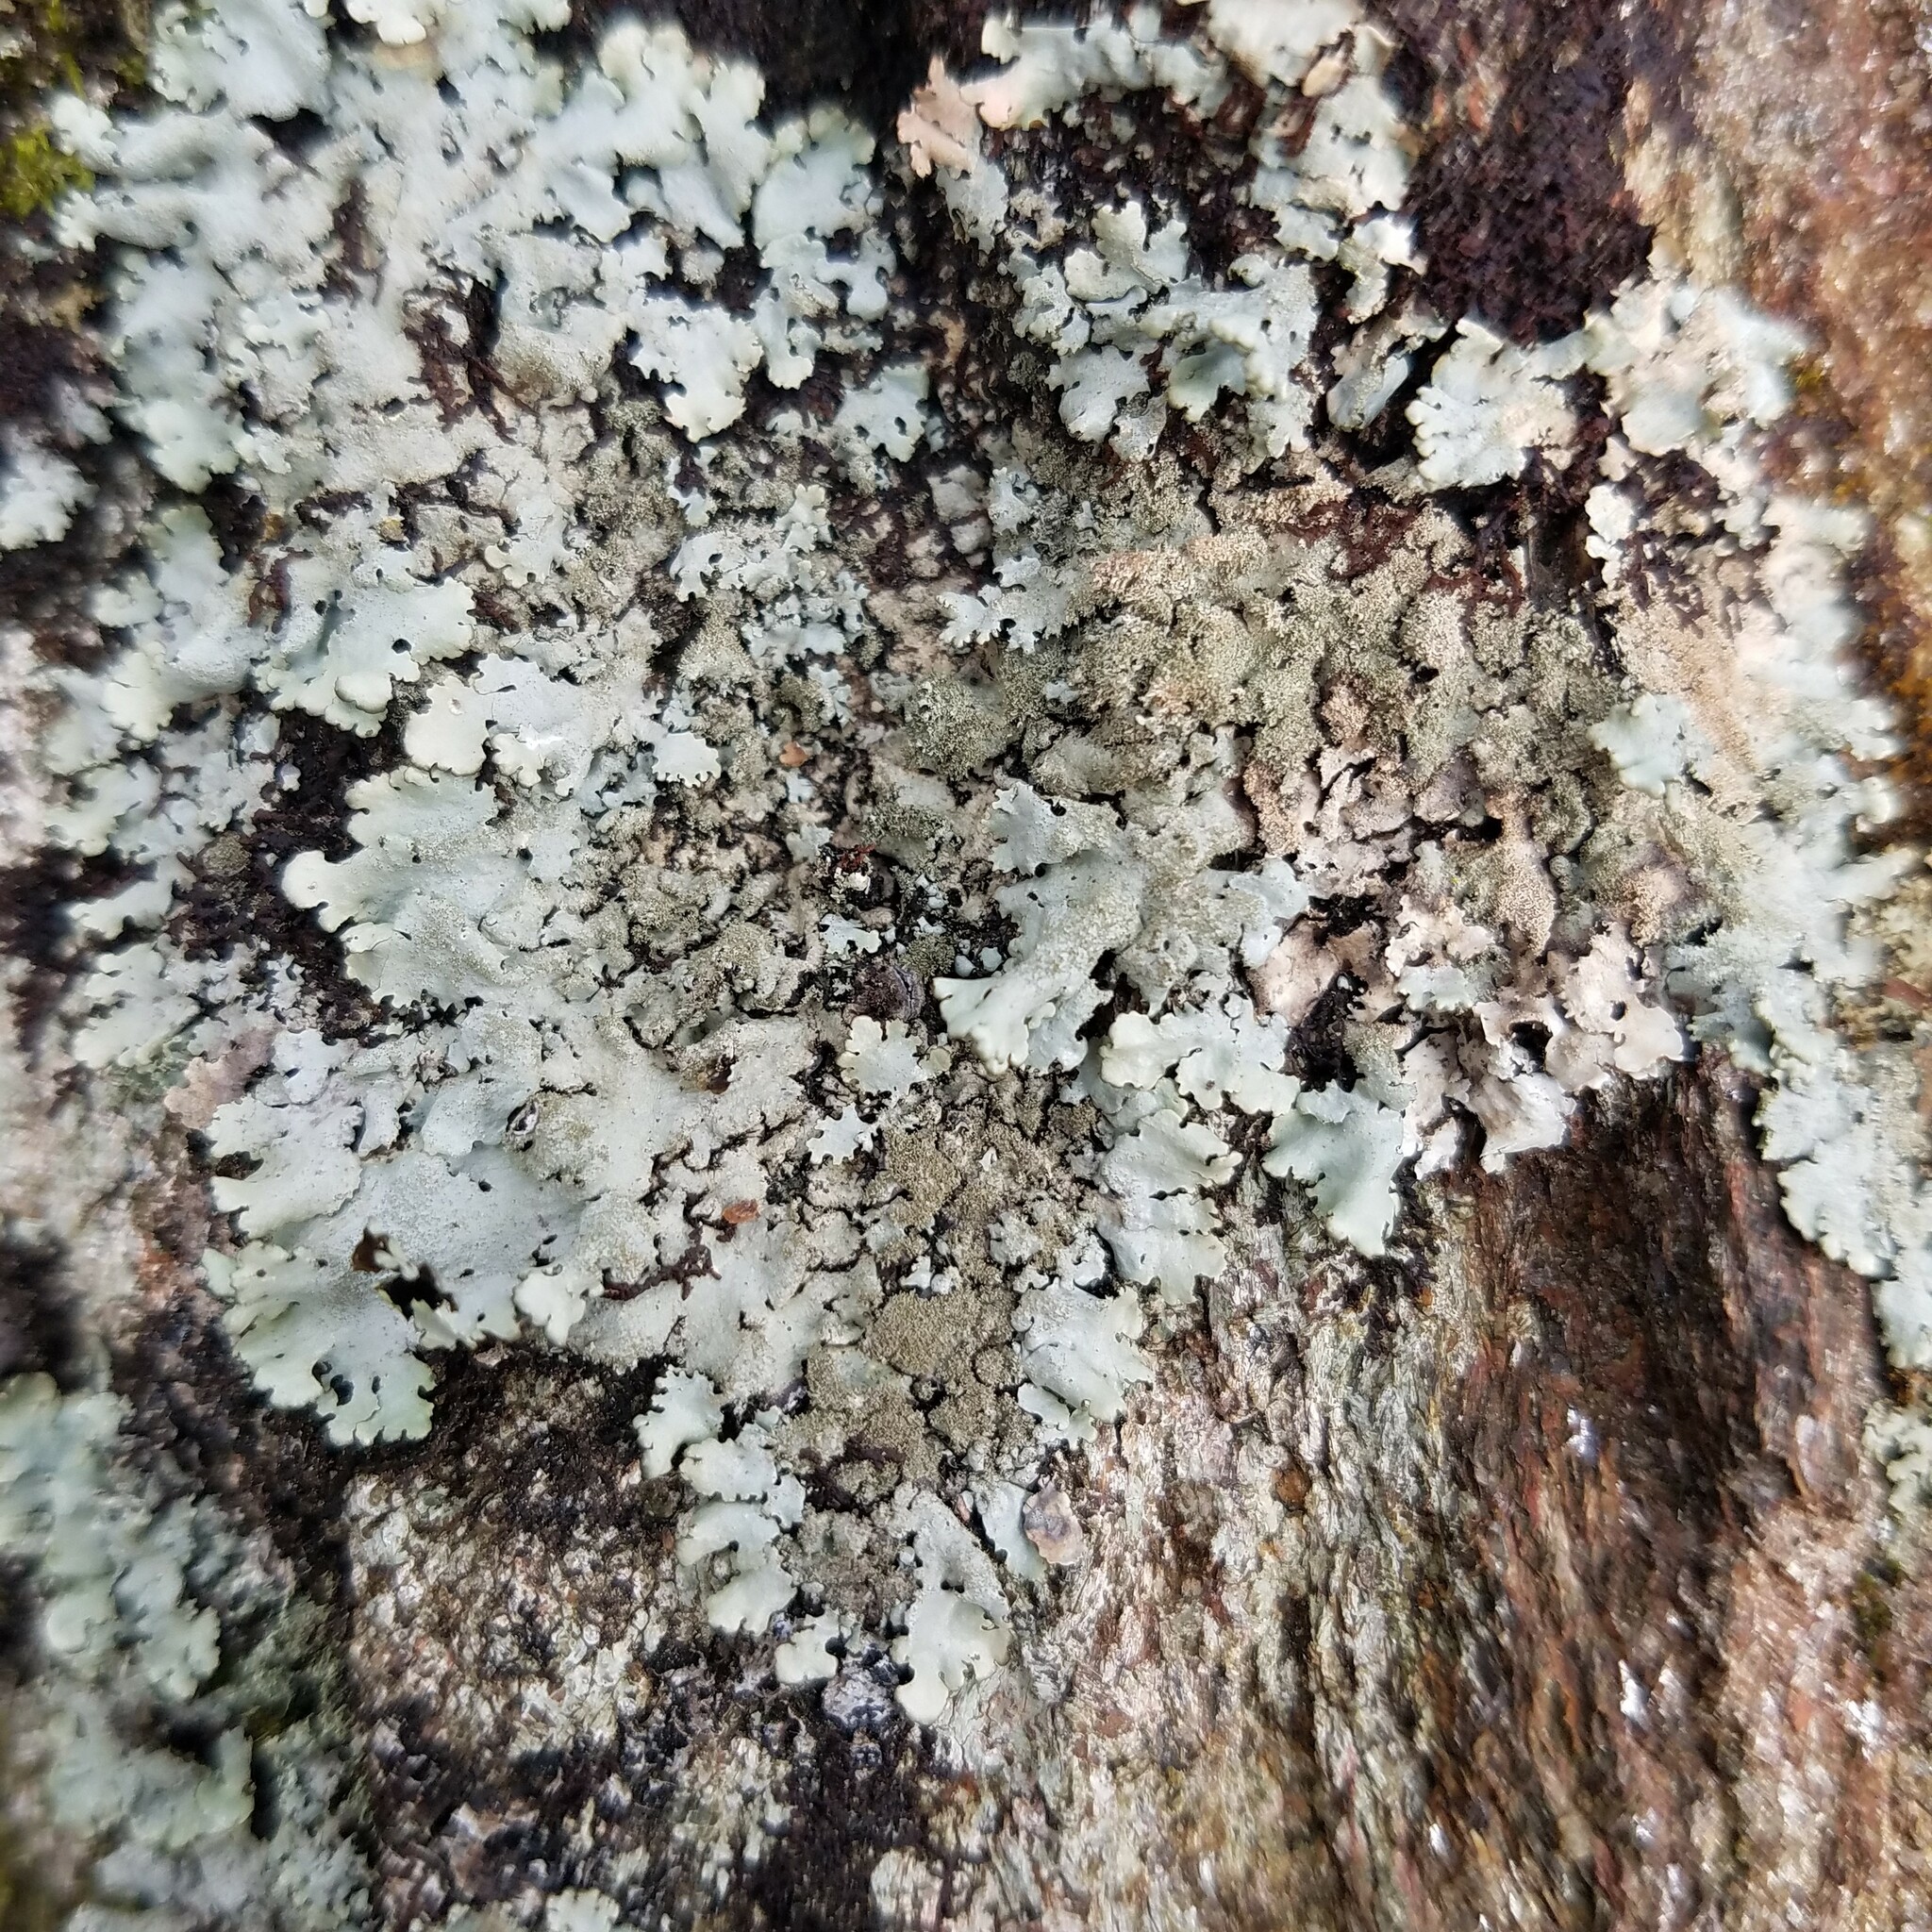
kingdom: Fungi
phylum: Ascomycota
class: Lecanoromycetes
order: Lecanorales
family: Parmeliaceae
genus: Hypotrachyna
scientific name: Hypotrachyna minarum
